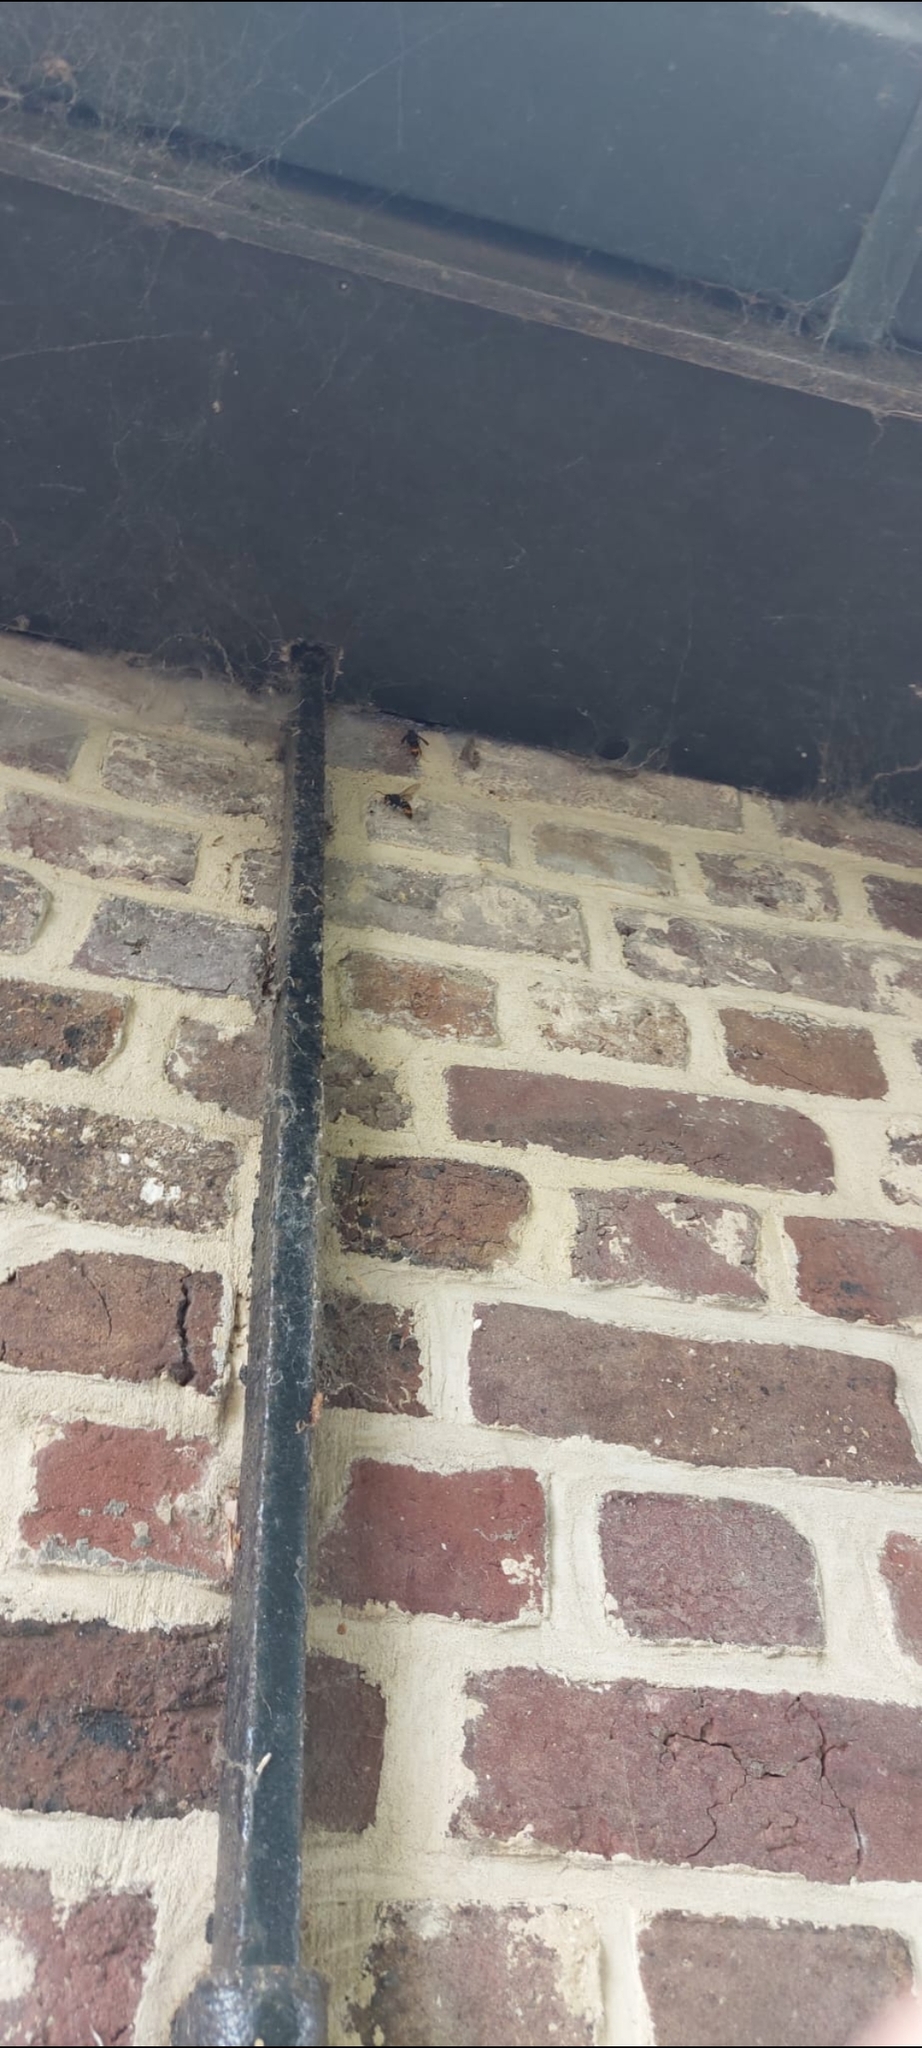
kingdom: Animalia
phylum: Arthropoda
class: Insecta
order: Hymenoptera
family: Vespidae
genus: Vespa
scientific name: Vespa velutina
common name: Asian hornet
